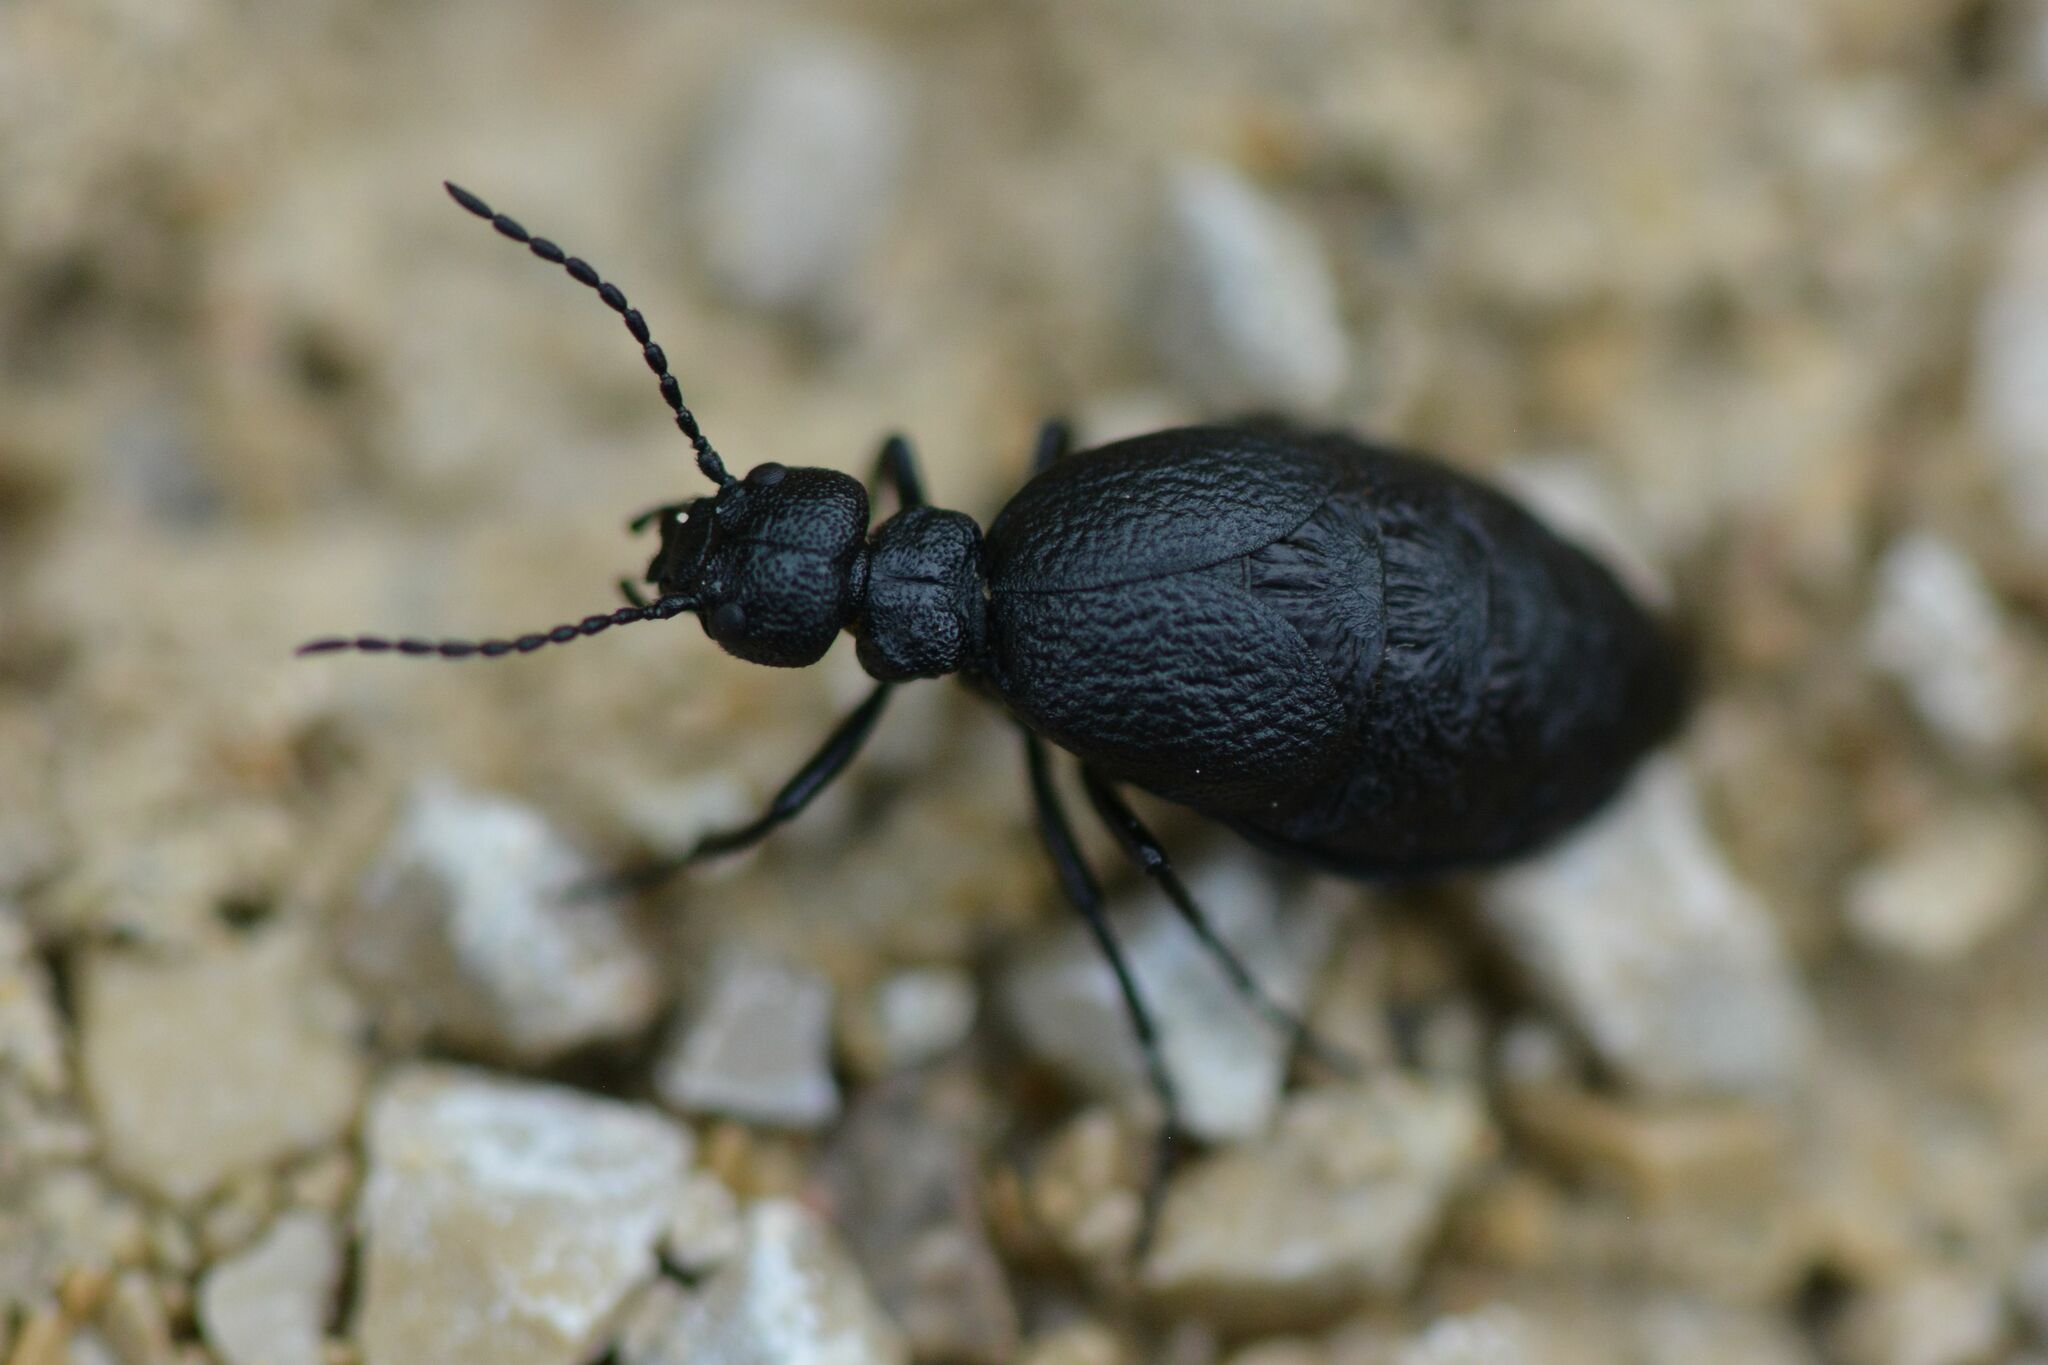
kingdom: Animalia
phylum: Arthropoda
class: Insecta
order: Coleoptera
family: Meloidae
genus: Meloe
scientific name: Meloe rugosus
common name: Rugged oil-beetle
